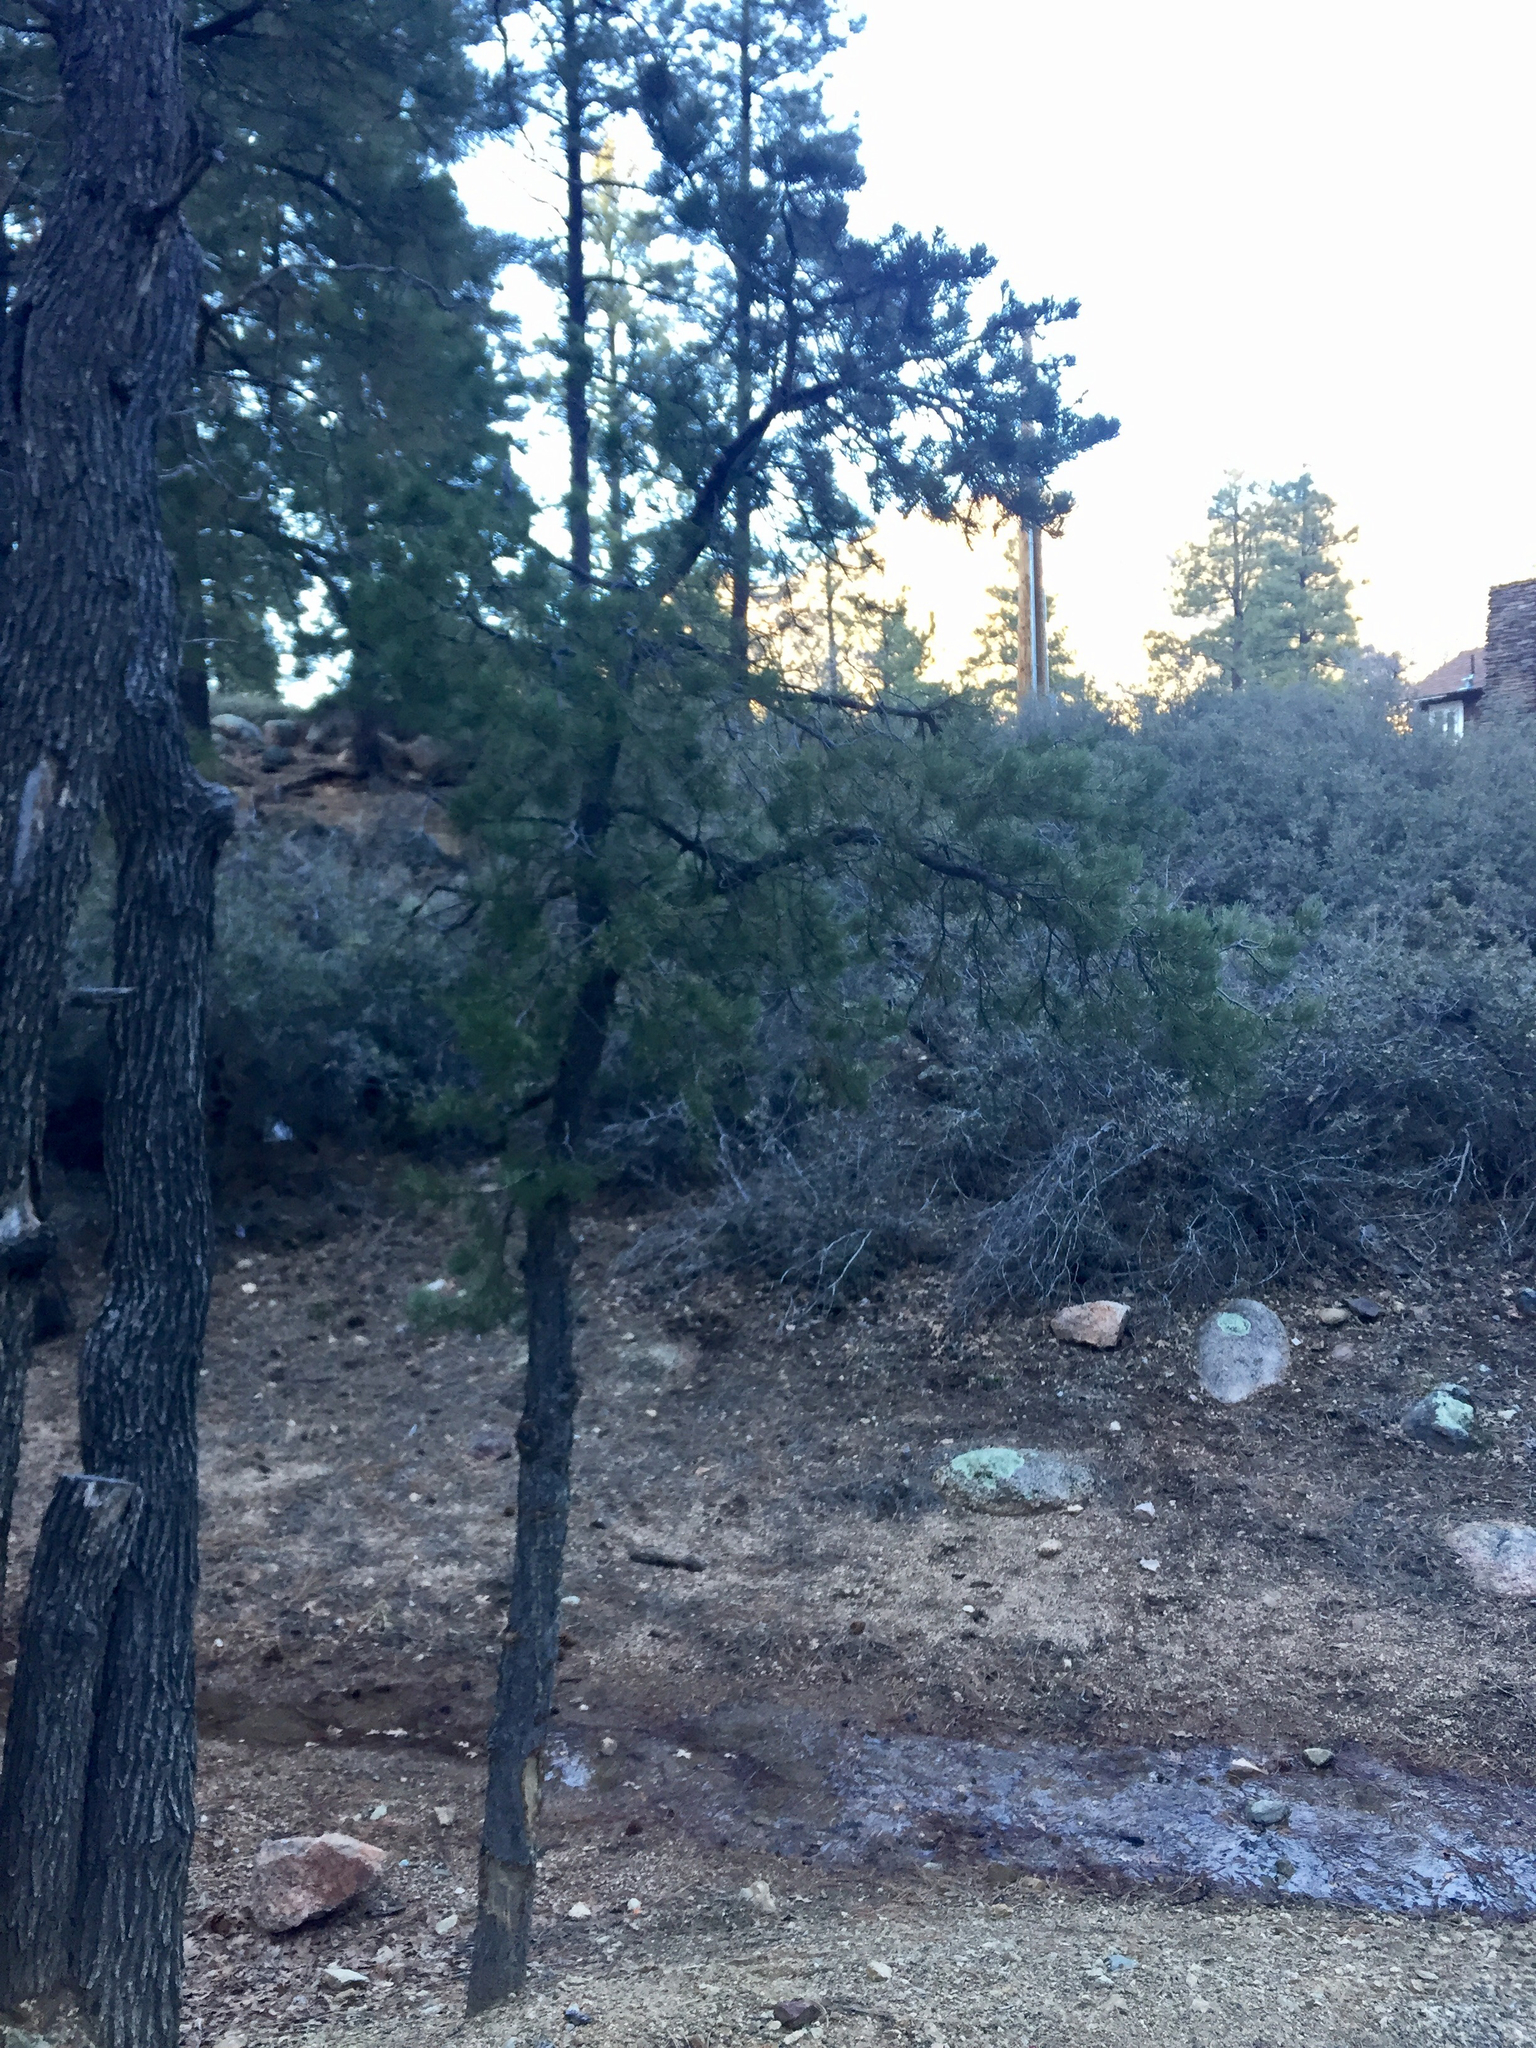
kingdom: Plantae
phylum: Tracheophyta
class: Pinopsida
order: Pinales
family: Pinaceae
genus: Pinus
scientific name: Pinus monophylla
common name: One-leaved nut pine
